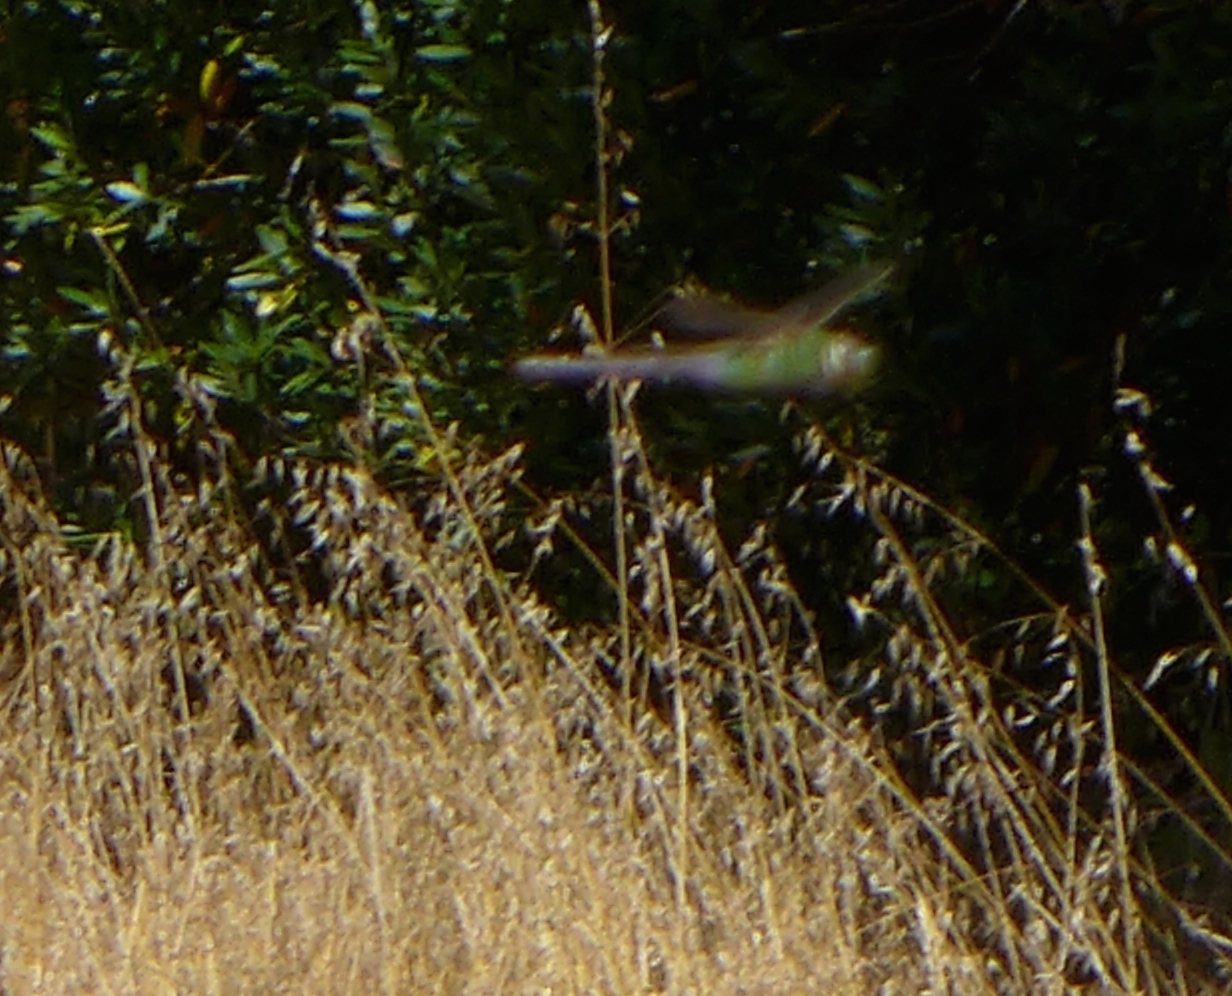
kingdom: Animalia
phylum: Arthropoda
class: Insecta
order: Odonata
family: Aeshnidae
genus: Anax
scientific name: Anax junius
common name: Common green darner
